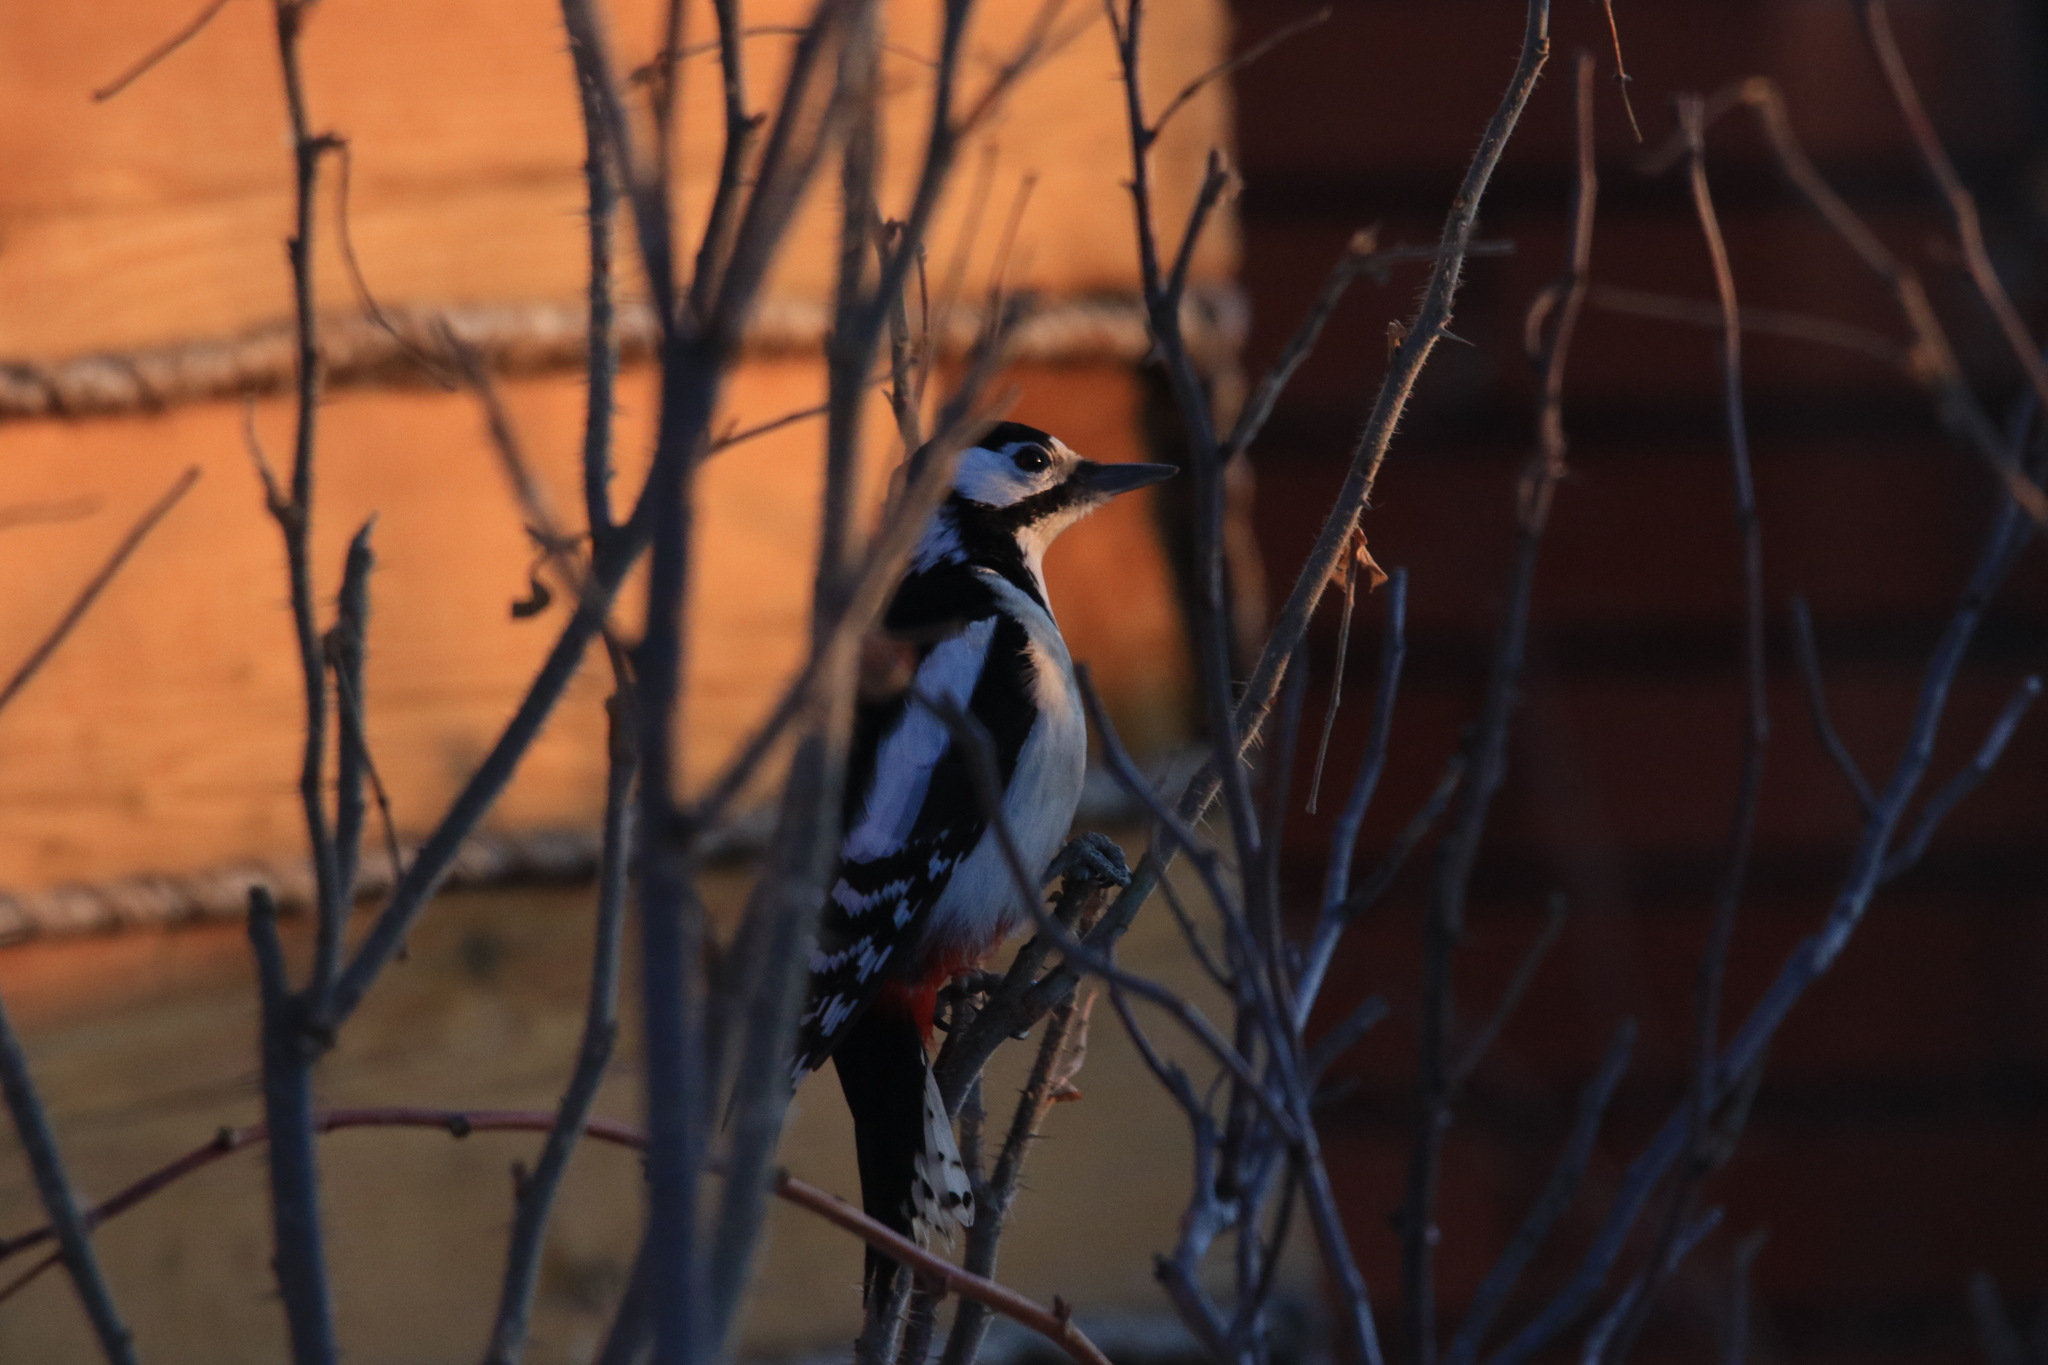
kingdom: Animalia
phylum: Chordata
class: Aves
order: Piciformes
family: Picidae
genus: Dendrocopos
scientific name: Dendrocopos major
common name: Great spotted woodpecker
